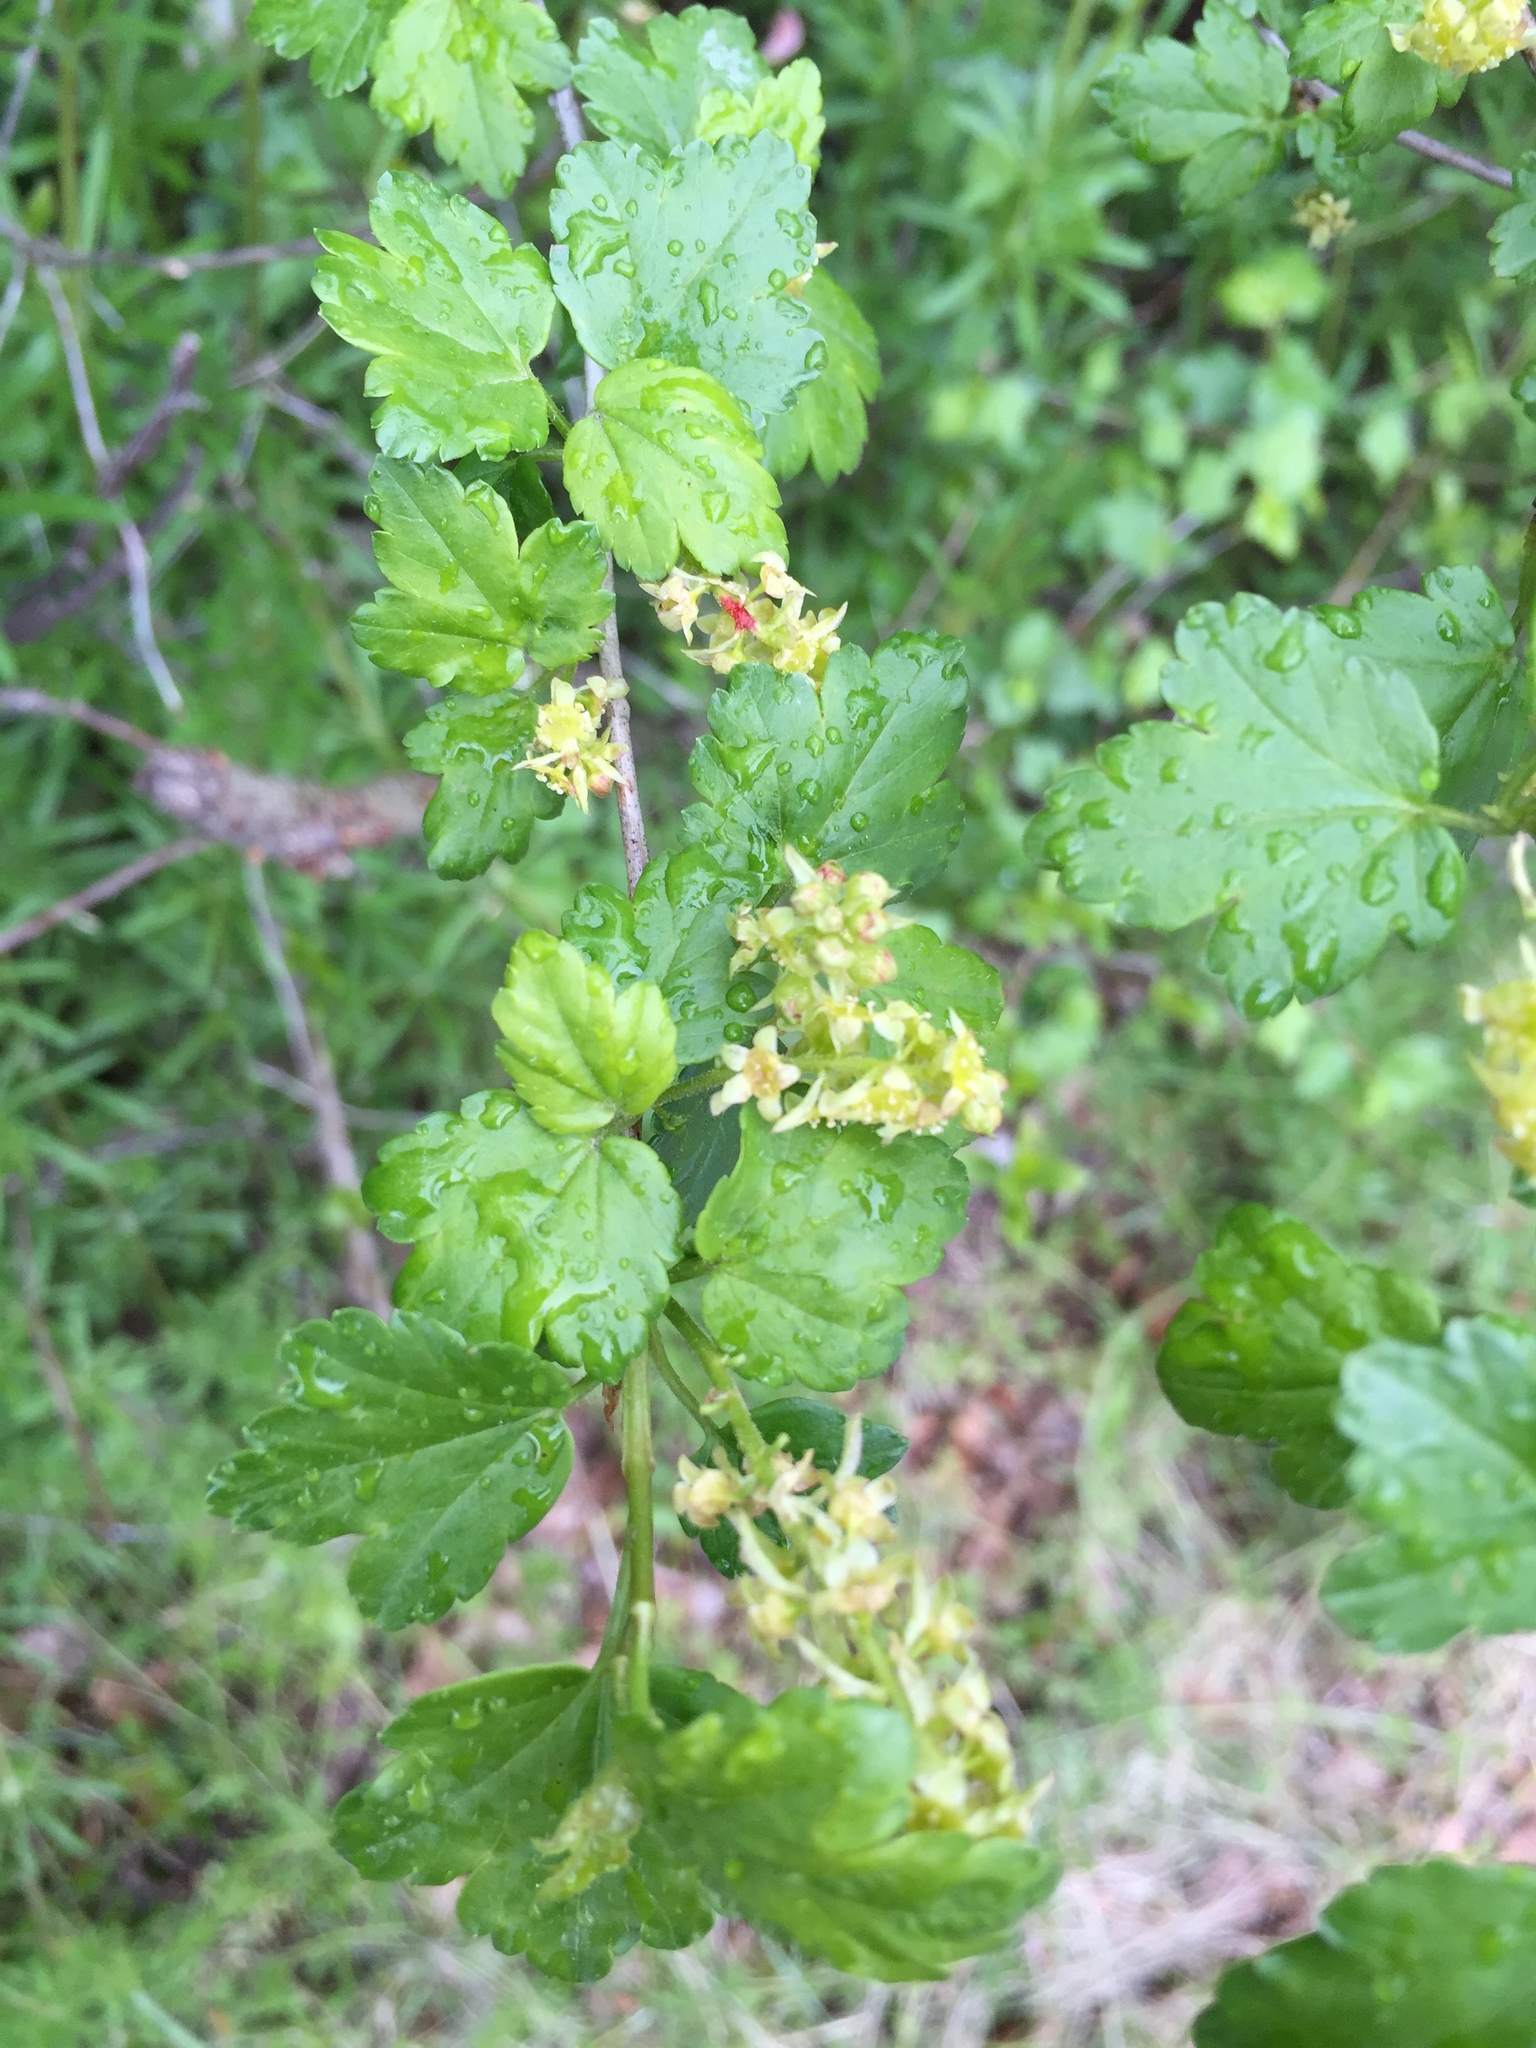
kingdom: Plantae
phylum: Tracheophyta
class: Magnoliopsida
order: Saxifragales
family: Grossulariaceae
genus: Ribes
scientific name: Ribes alpinum
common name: Alpine currant
